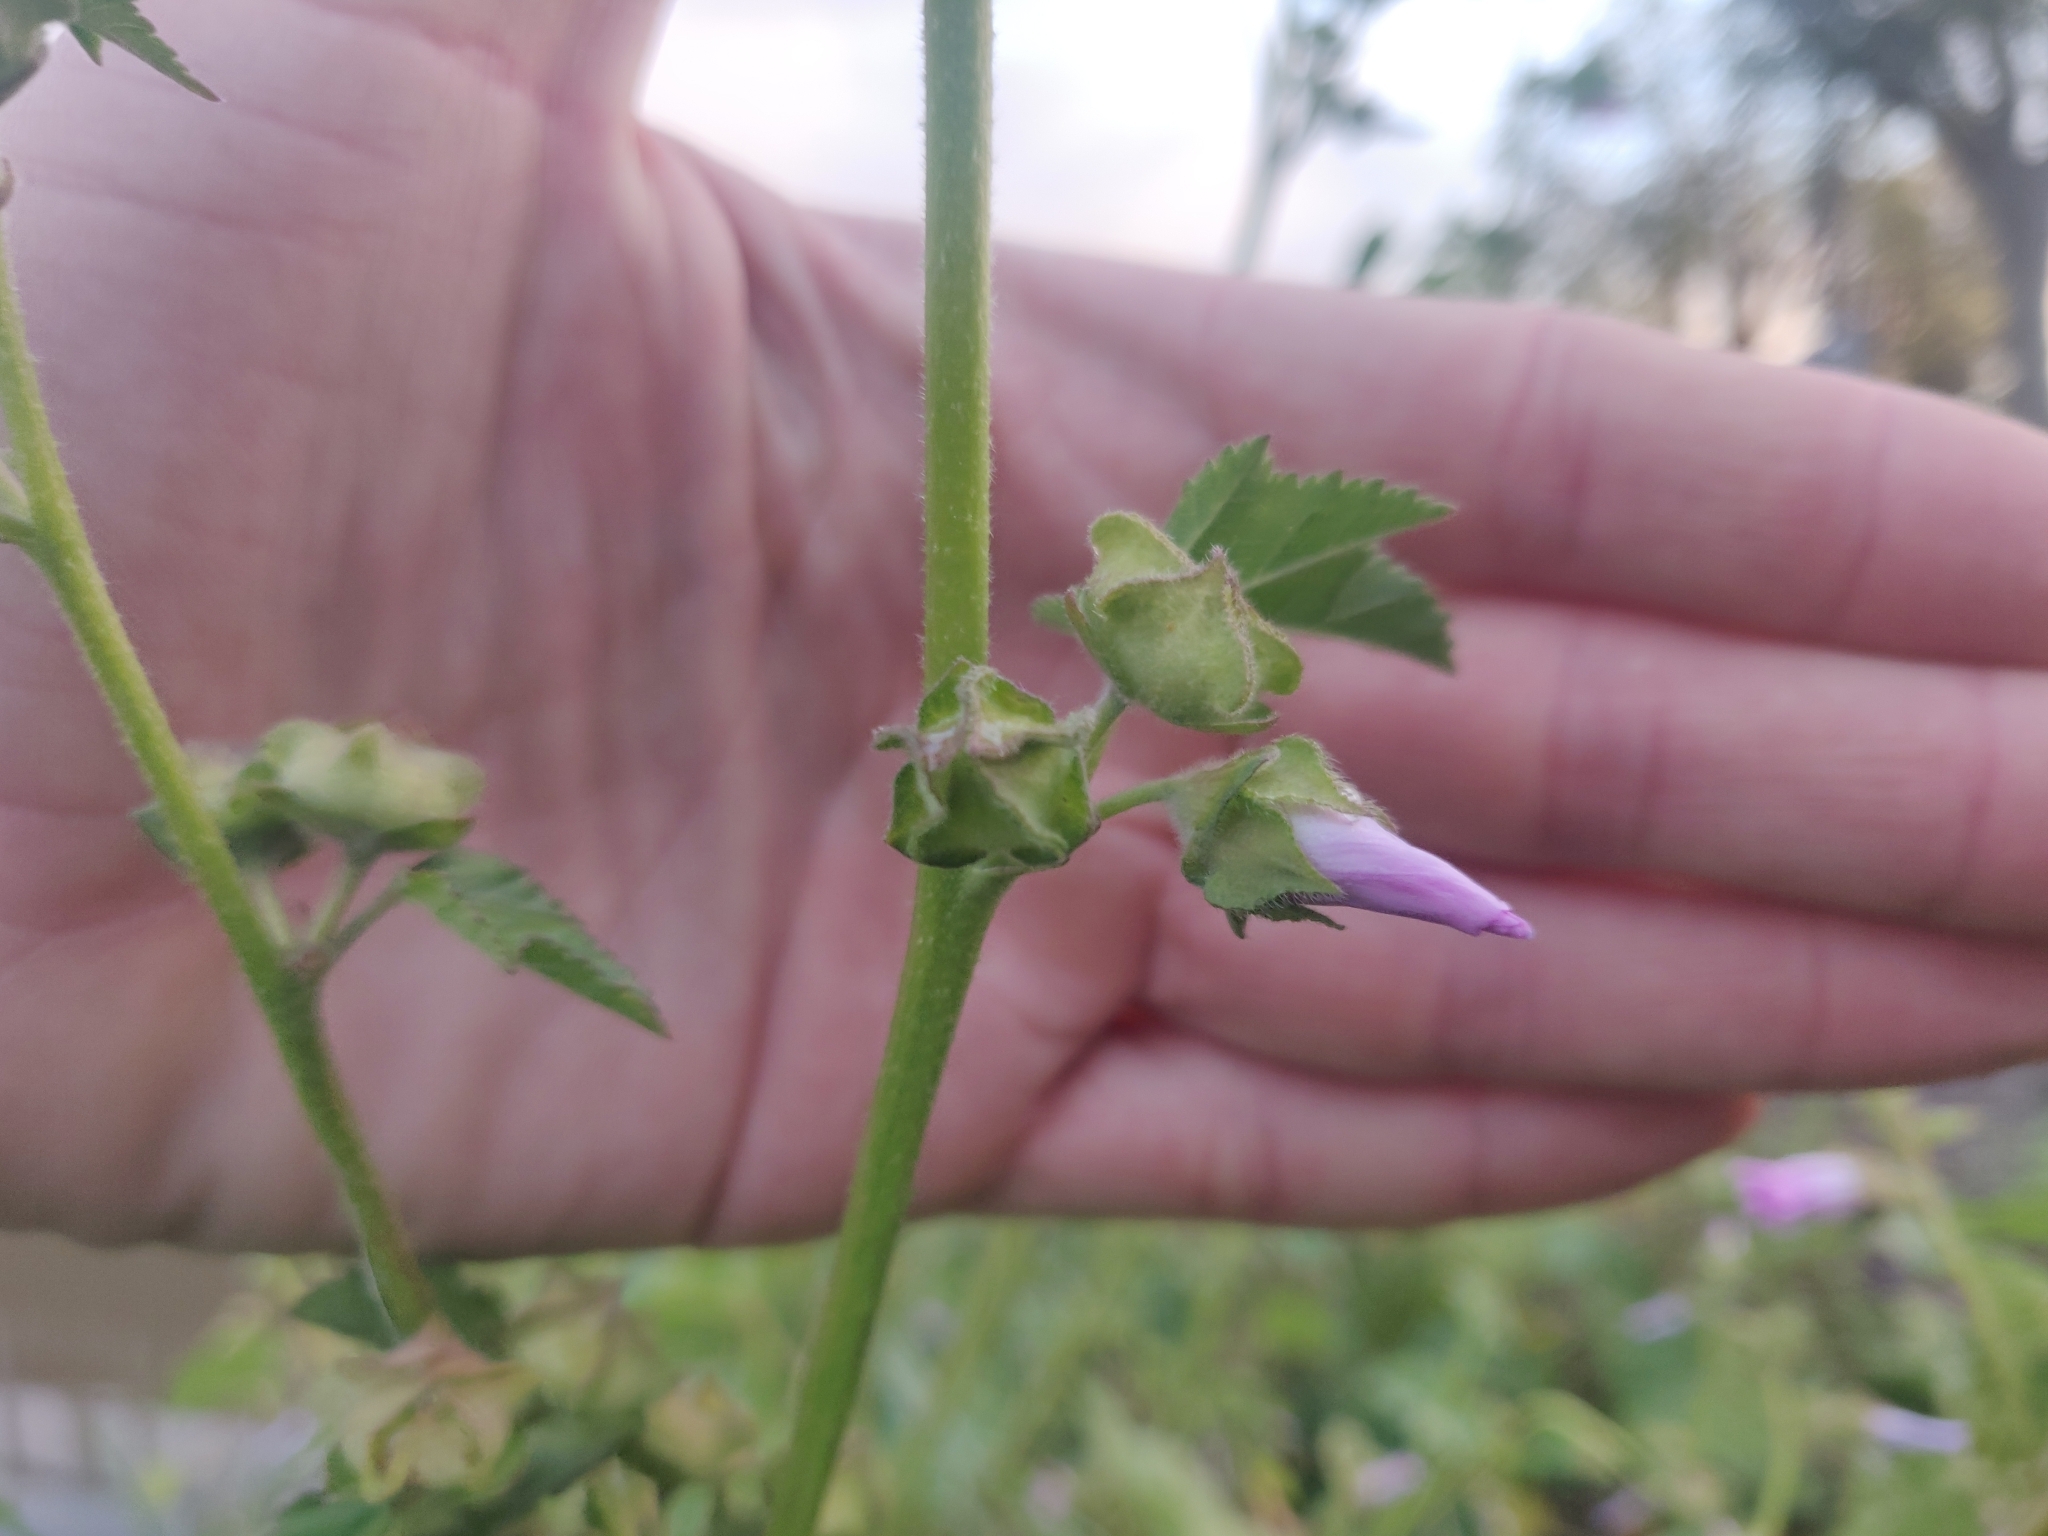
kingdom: Plantae
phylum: Tracheophyta
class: Magnoliopsida
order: Malvales
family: Malvaceae
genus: Malva
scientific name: Malva multiflora
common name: Cheeseweed
